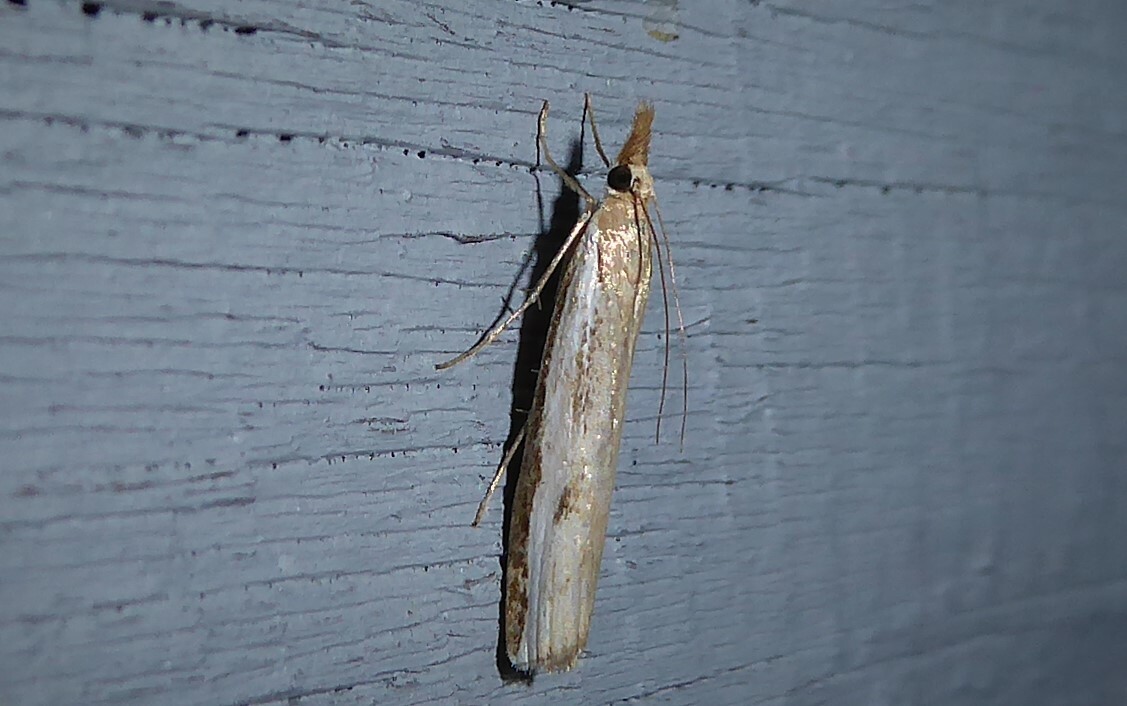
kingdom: Animalia
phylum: Arthropoda
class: Insecta
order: Lepidoptera
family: Crambidae
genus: Orocrambus
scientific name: Orocrambus flexuosellus
